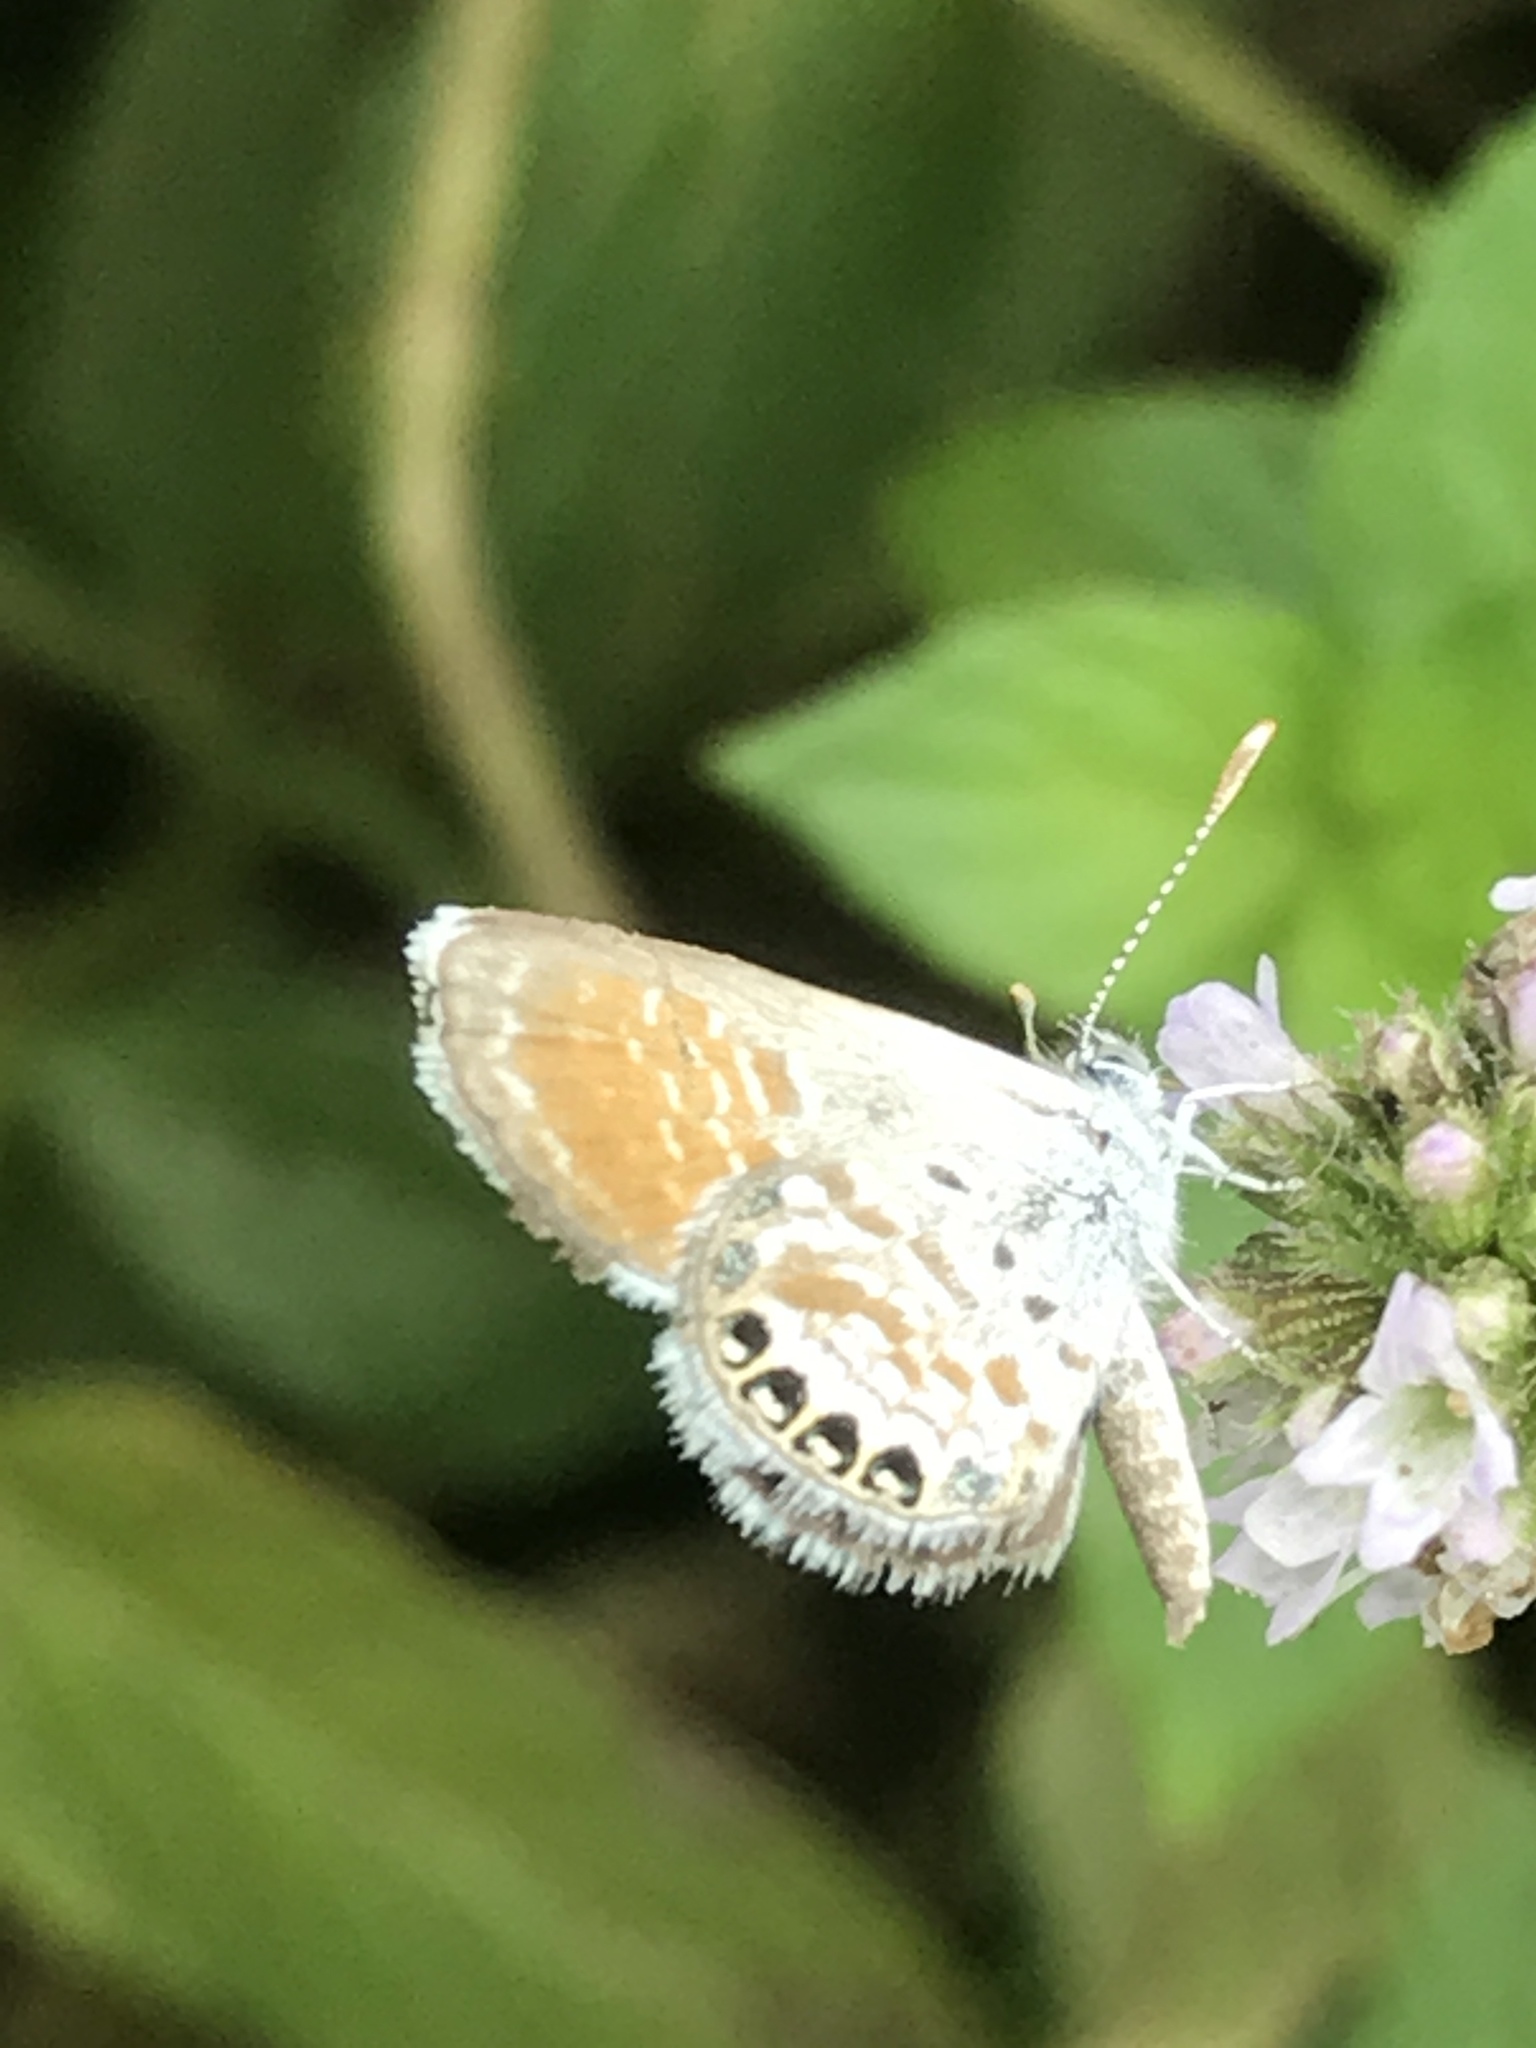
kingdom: Animalia
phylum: Arthropoda
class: Insecta
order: Lepidoptera
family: Lycaenidae
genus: Brephidium
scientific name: Brephidium exilis
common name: Pygmy blue
